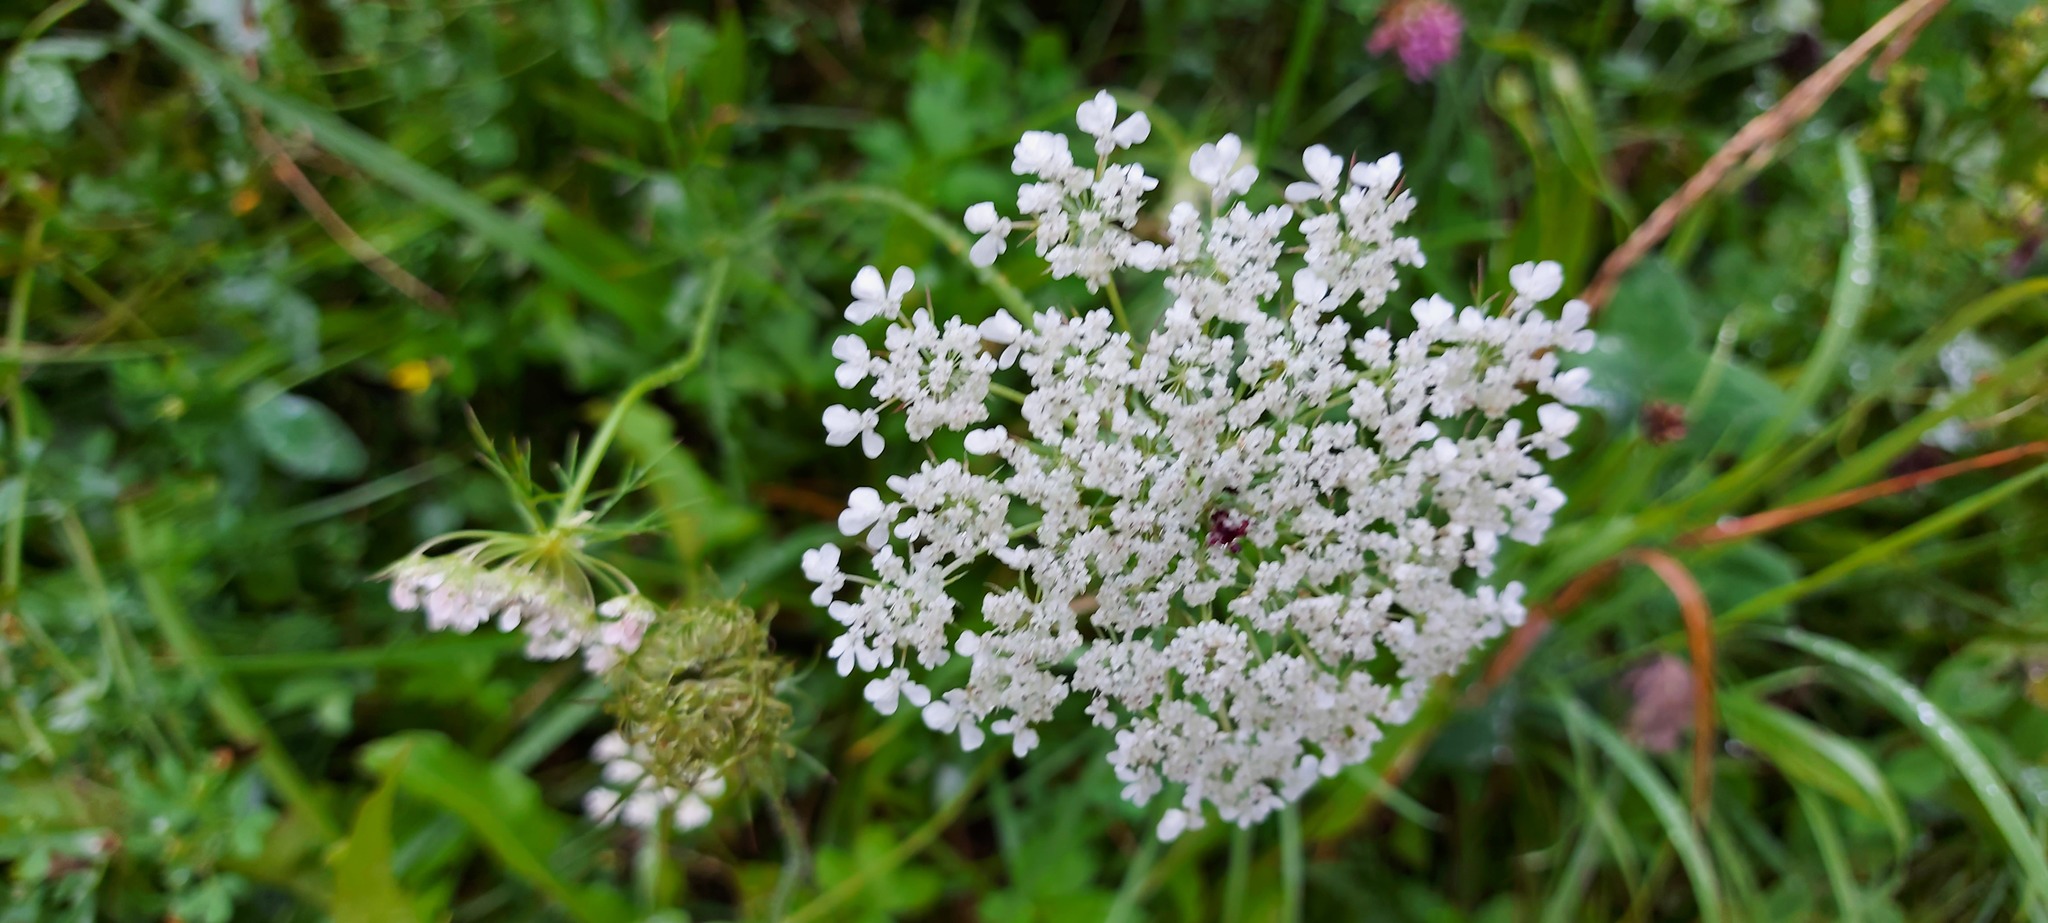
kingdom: Plantae
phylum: Tracheophyta
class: Magnoliopsida
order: Apiales
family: Apiaceae
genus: Daucus
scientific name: Daucus carota
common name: Wild carrot
